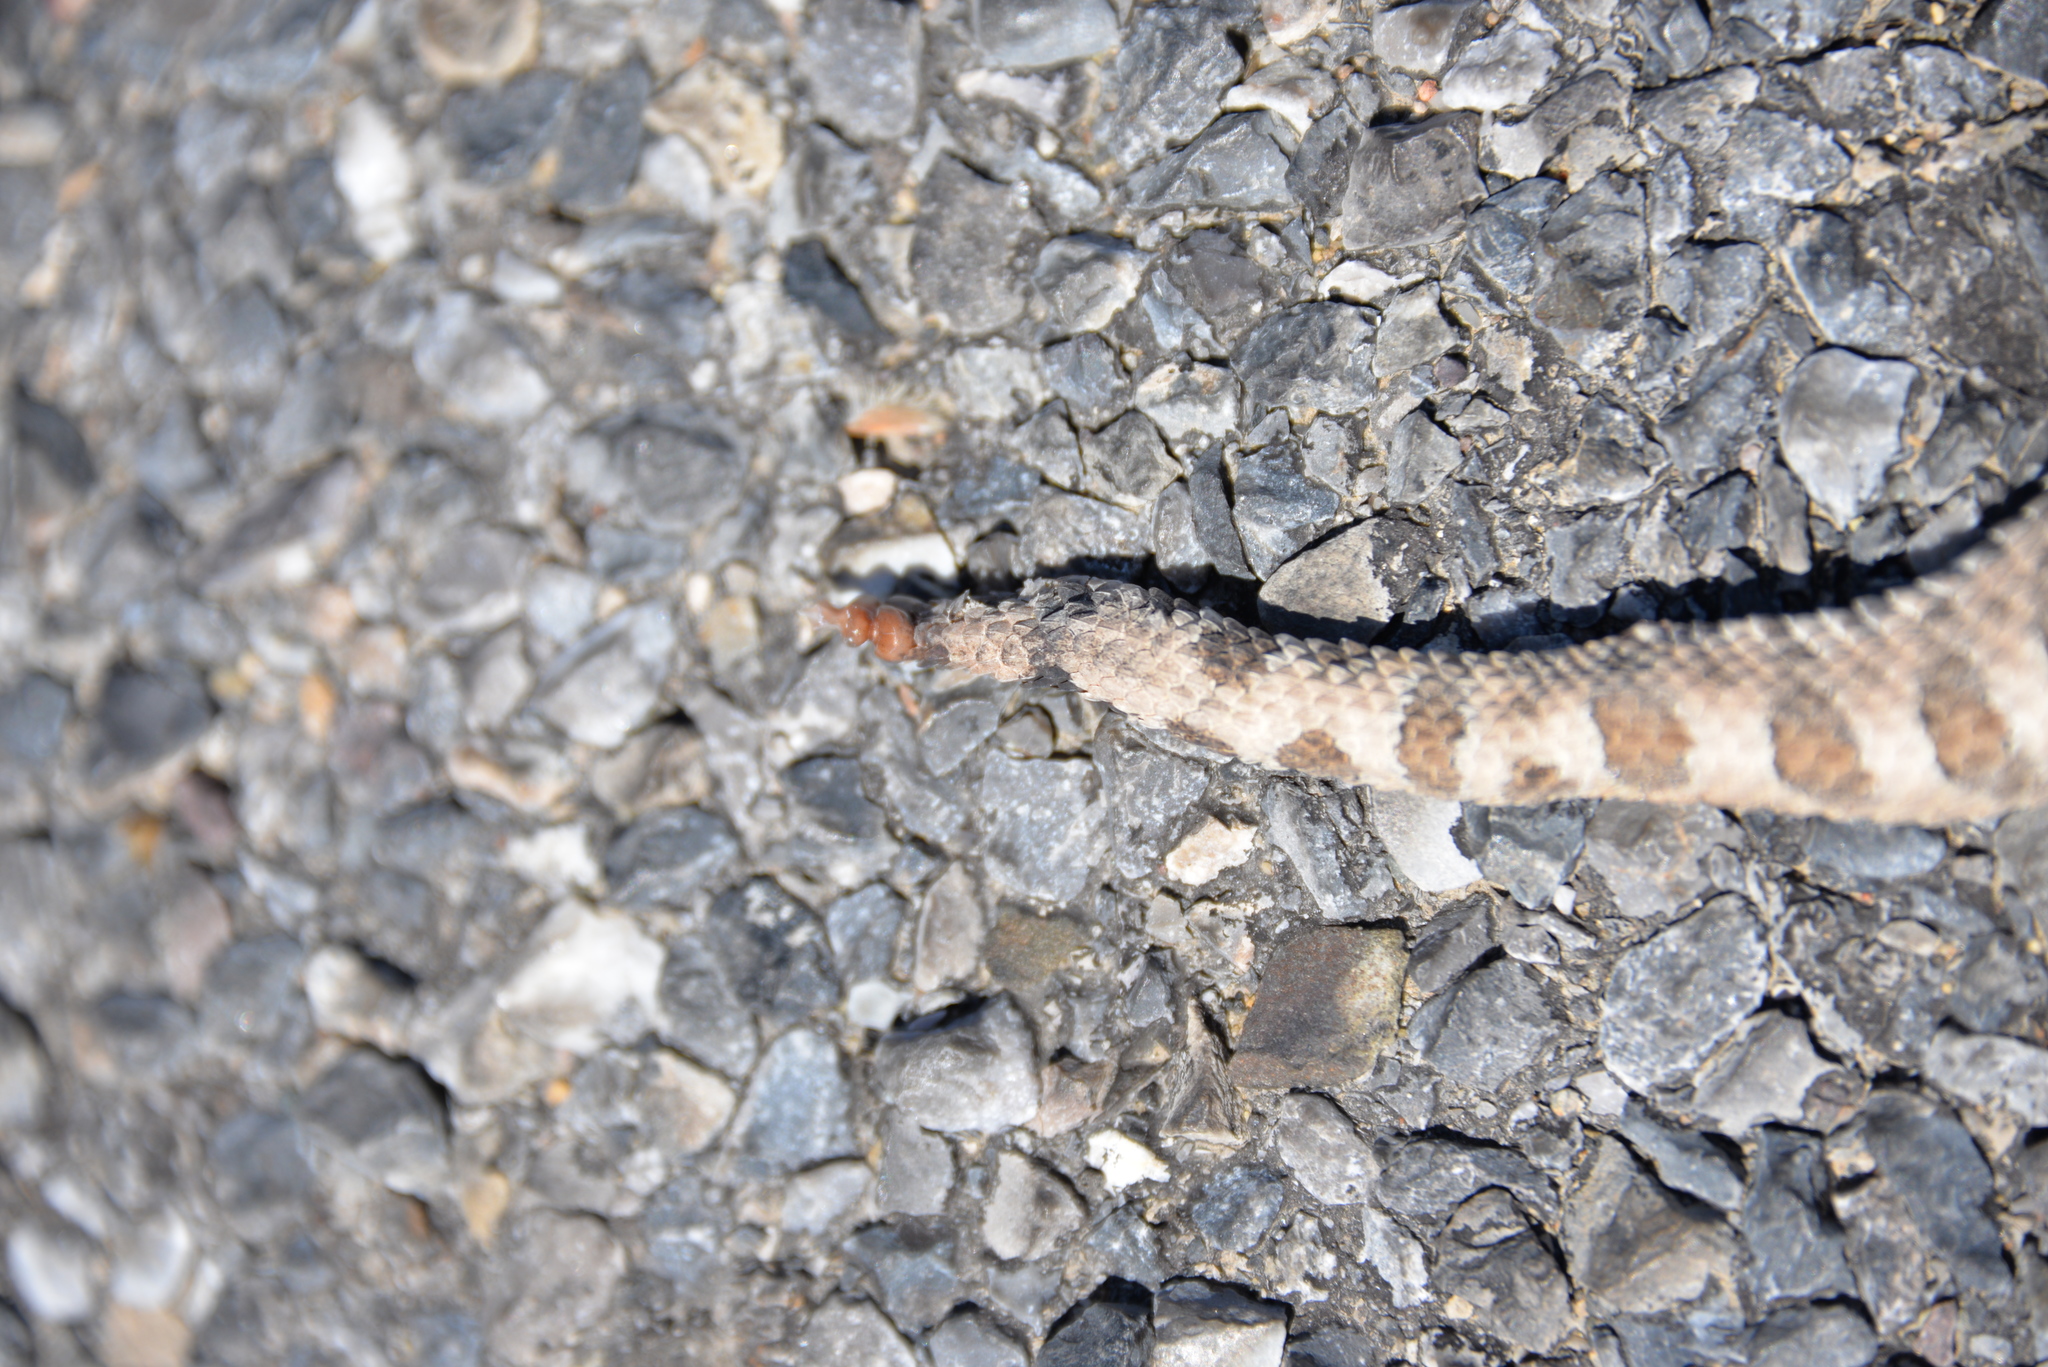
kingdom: Animalia
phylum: Chordata
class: Squamata
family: Viperidae
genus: Crotalus
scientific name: Crotalus cerastes
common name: Sidewinder
